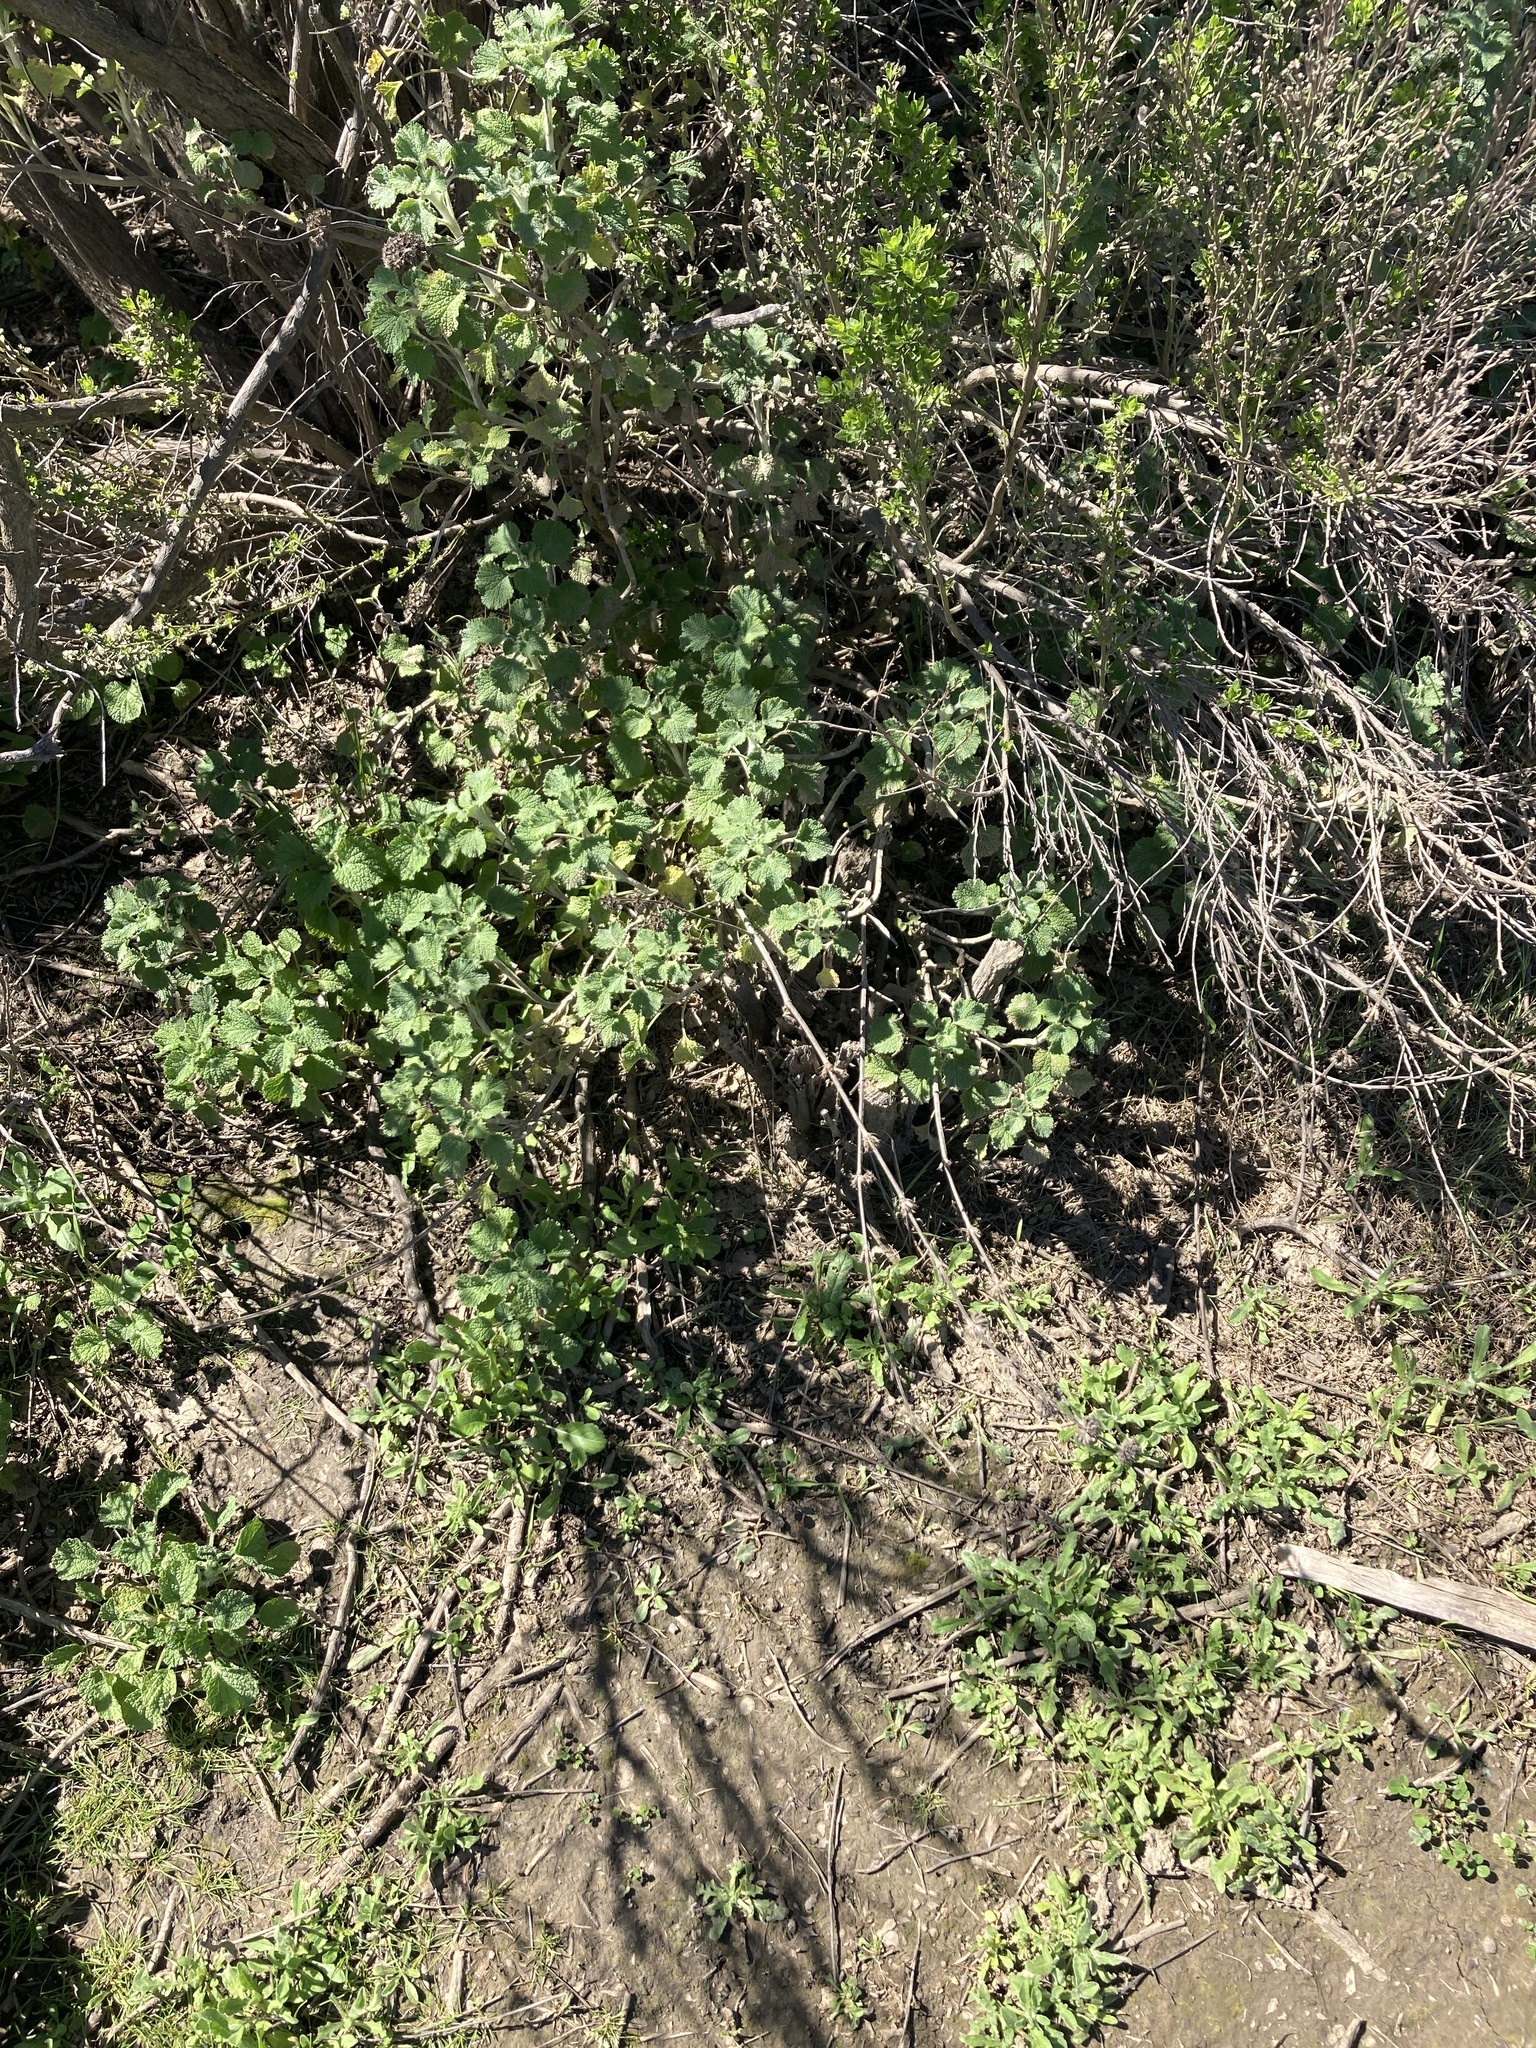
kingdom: Plantae
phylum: Tracheophyta
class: Magnoliopsida
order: Lamiales
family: Lamiaceae
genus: Marrubium
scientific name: Marrubium vulgare
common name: Horehound
